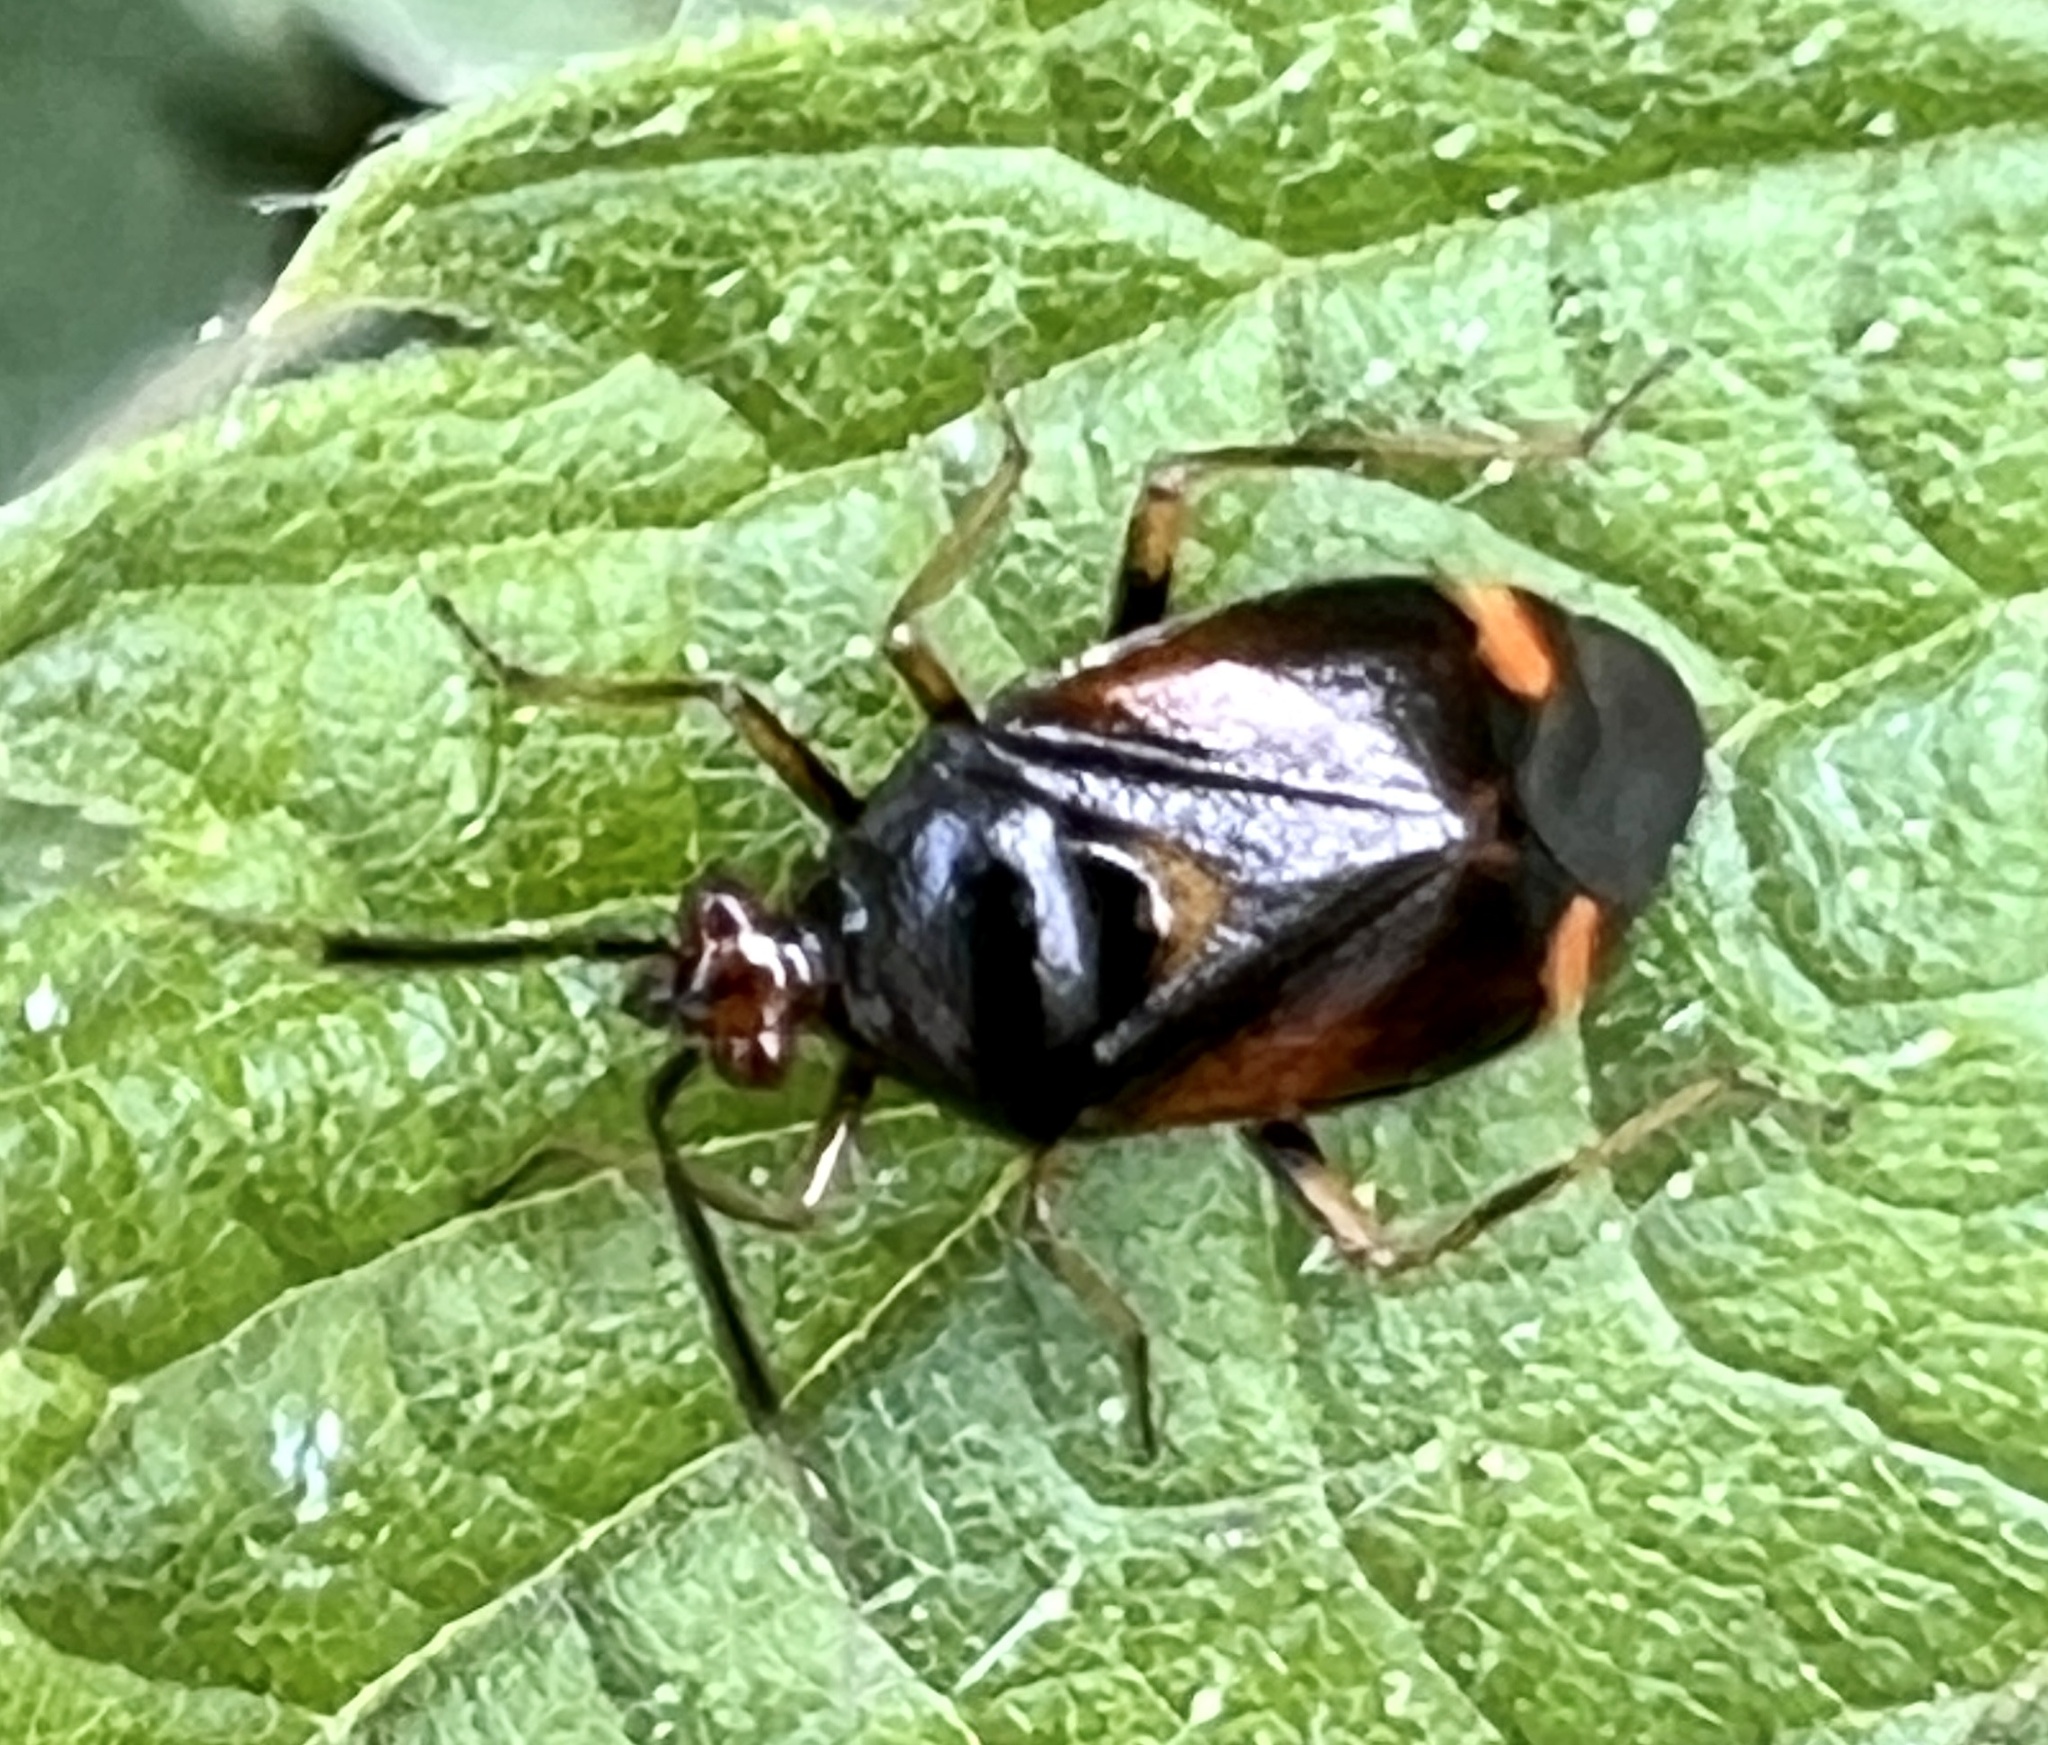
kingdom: Animalia
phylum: Arthropoda
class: Insecta
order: Hemiptera
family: Miridae
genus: Deraeocoris
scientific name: Deraeocoris ruber
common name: Plant bug
